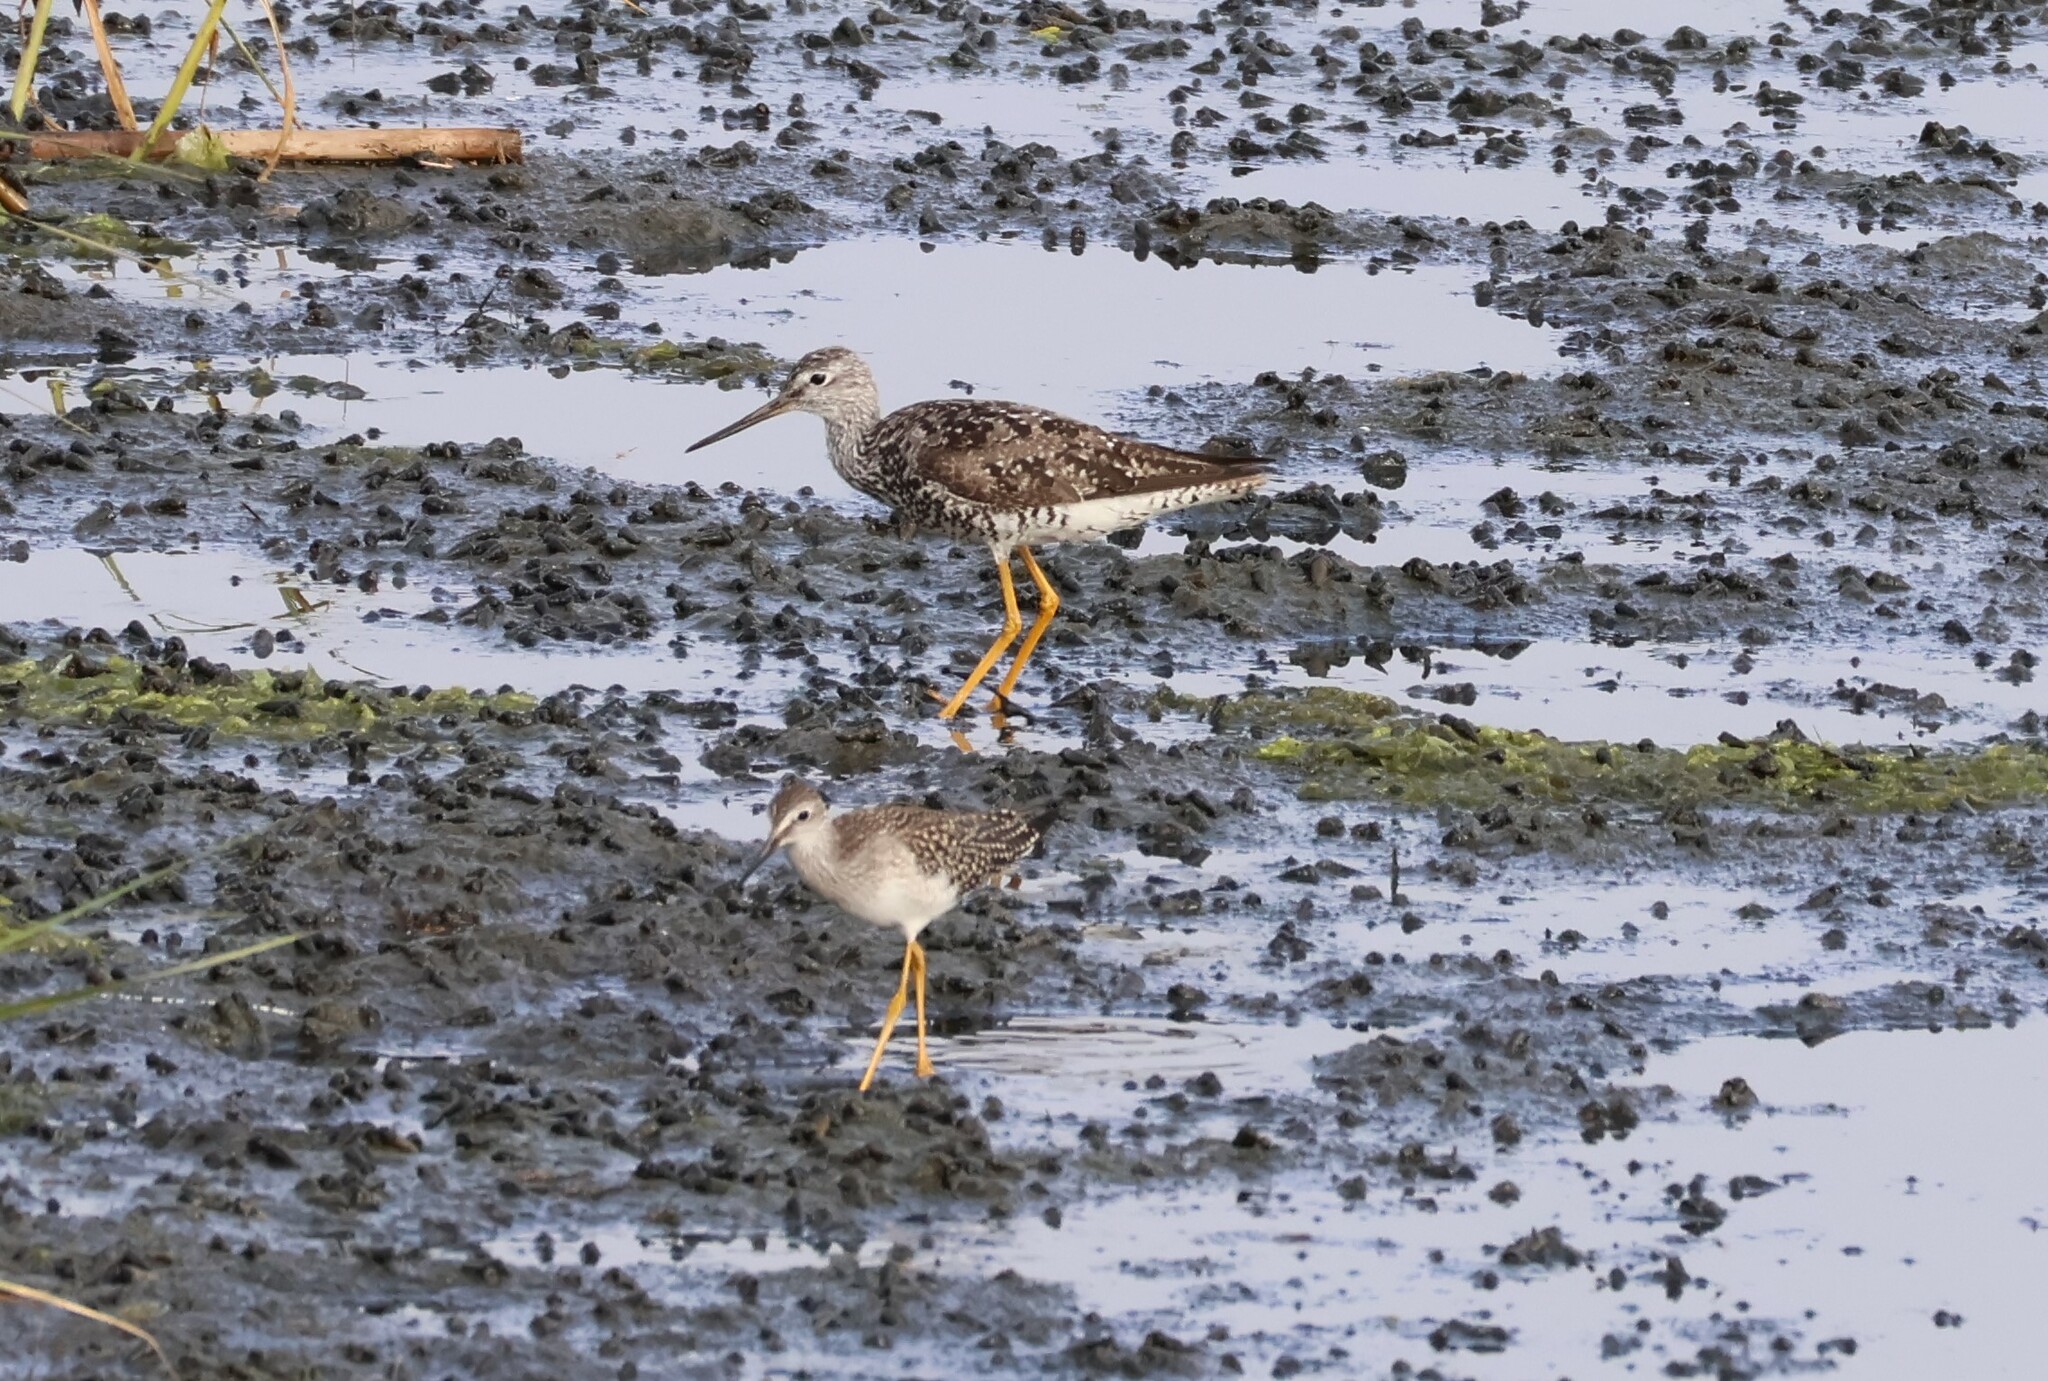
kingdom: Animalia
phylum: Chordata
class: Aves
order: Charadriiformes
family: Scolopacidae
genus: Tringa
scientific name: Tringa melanoleuca
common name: Greater yellowlegs
